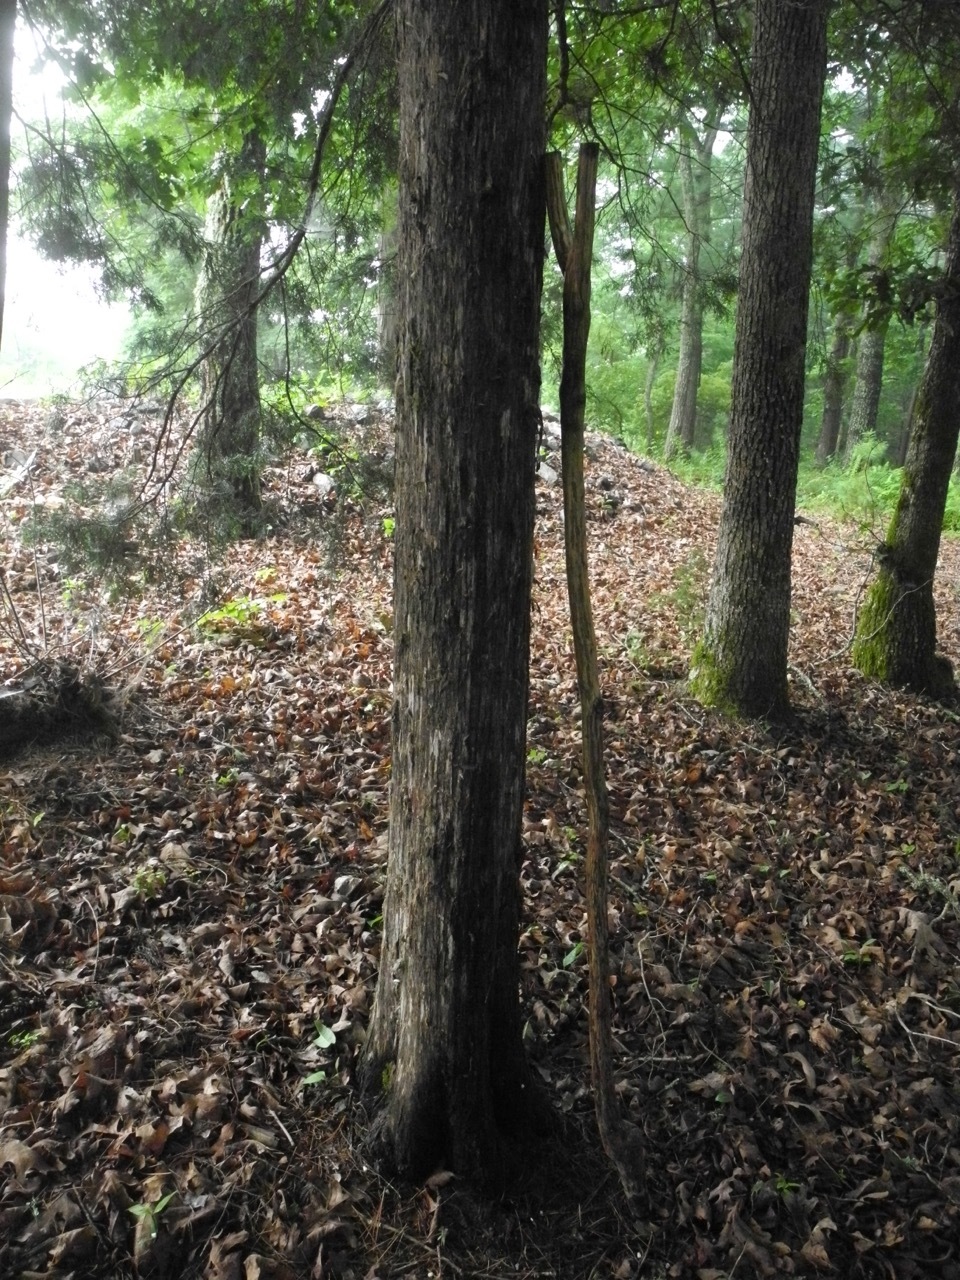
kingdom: Plantae
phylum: Tracheophyta
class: Pinopsida
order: Pinales
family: Cupressaceae
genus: Juniperus
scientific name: Juniperus virginiana
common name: Red juniper
